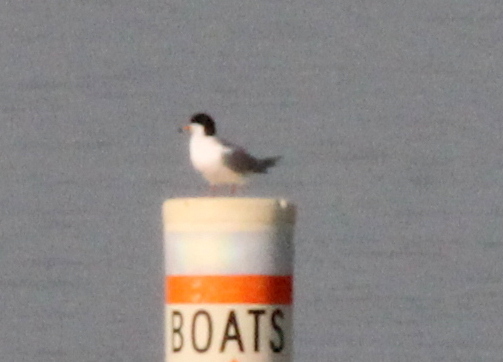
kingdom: Animalia
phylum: Chordata
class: Aves
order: Charadriiformes
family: Laridae
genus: Sterna
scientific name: Sterna forsteri
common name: Forster's tern
